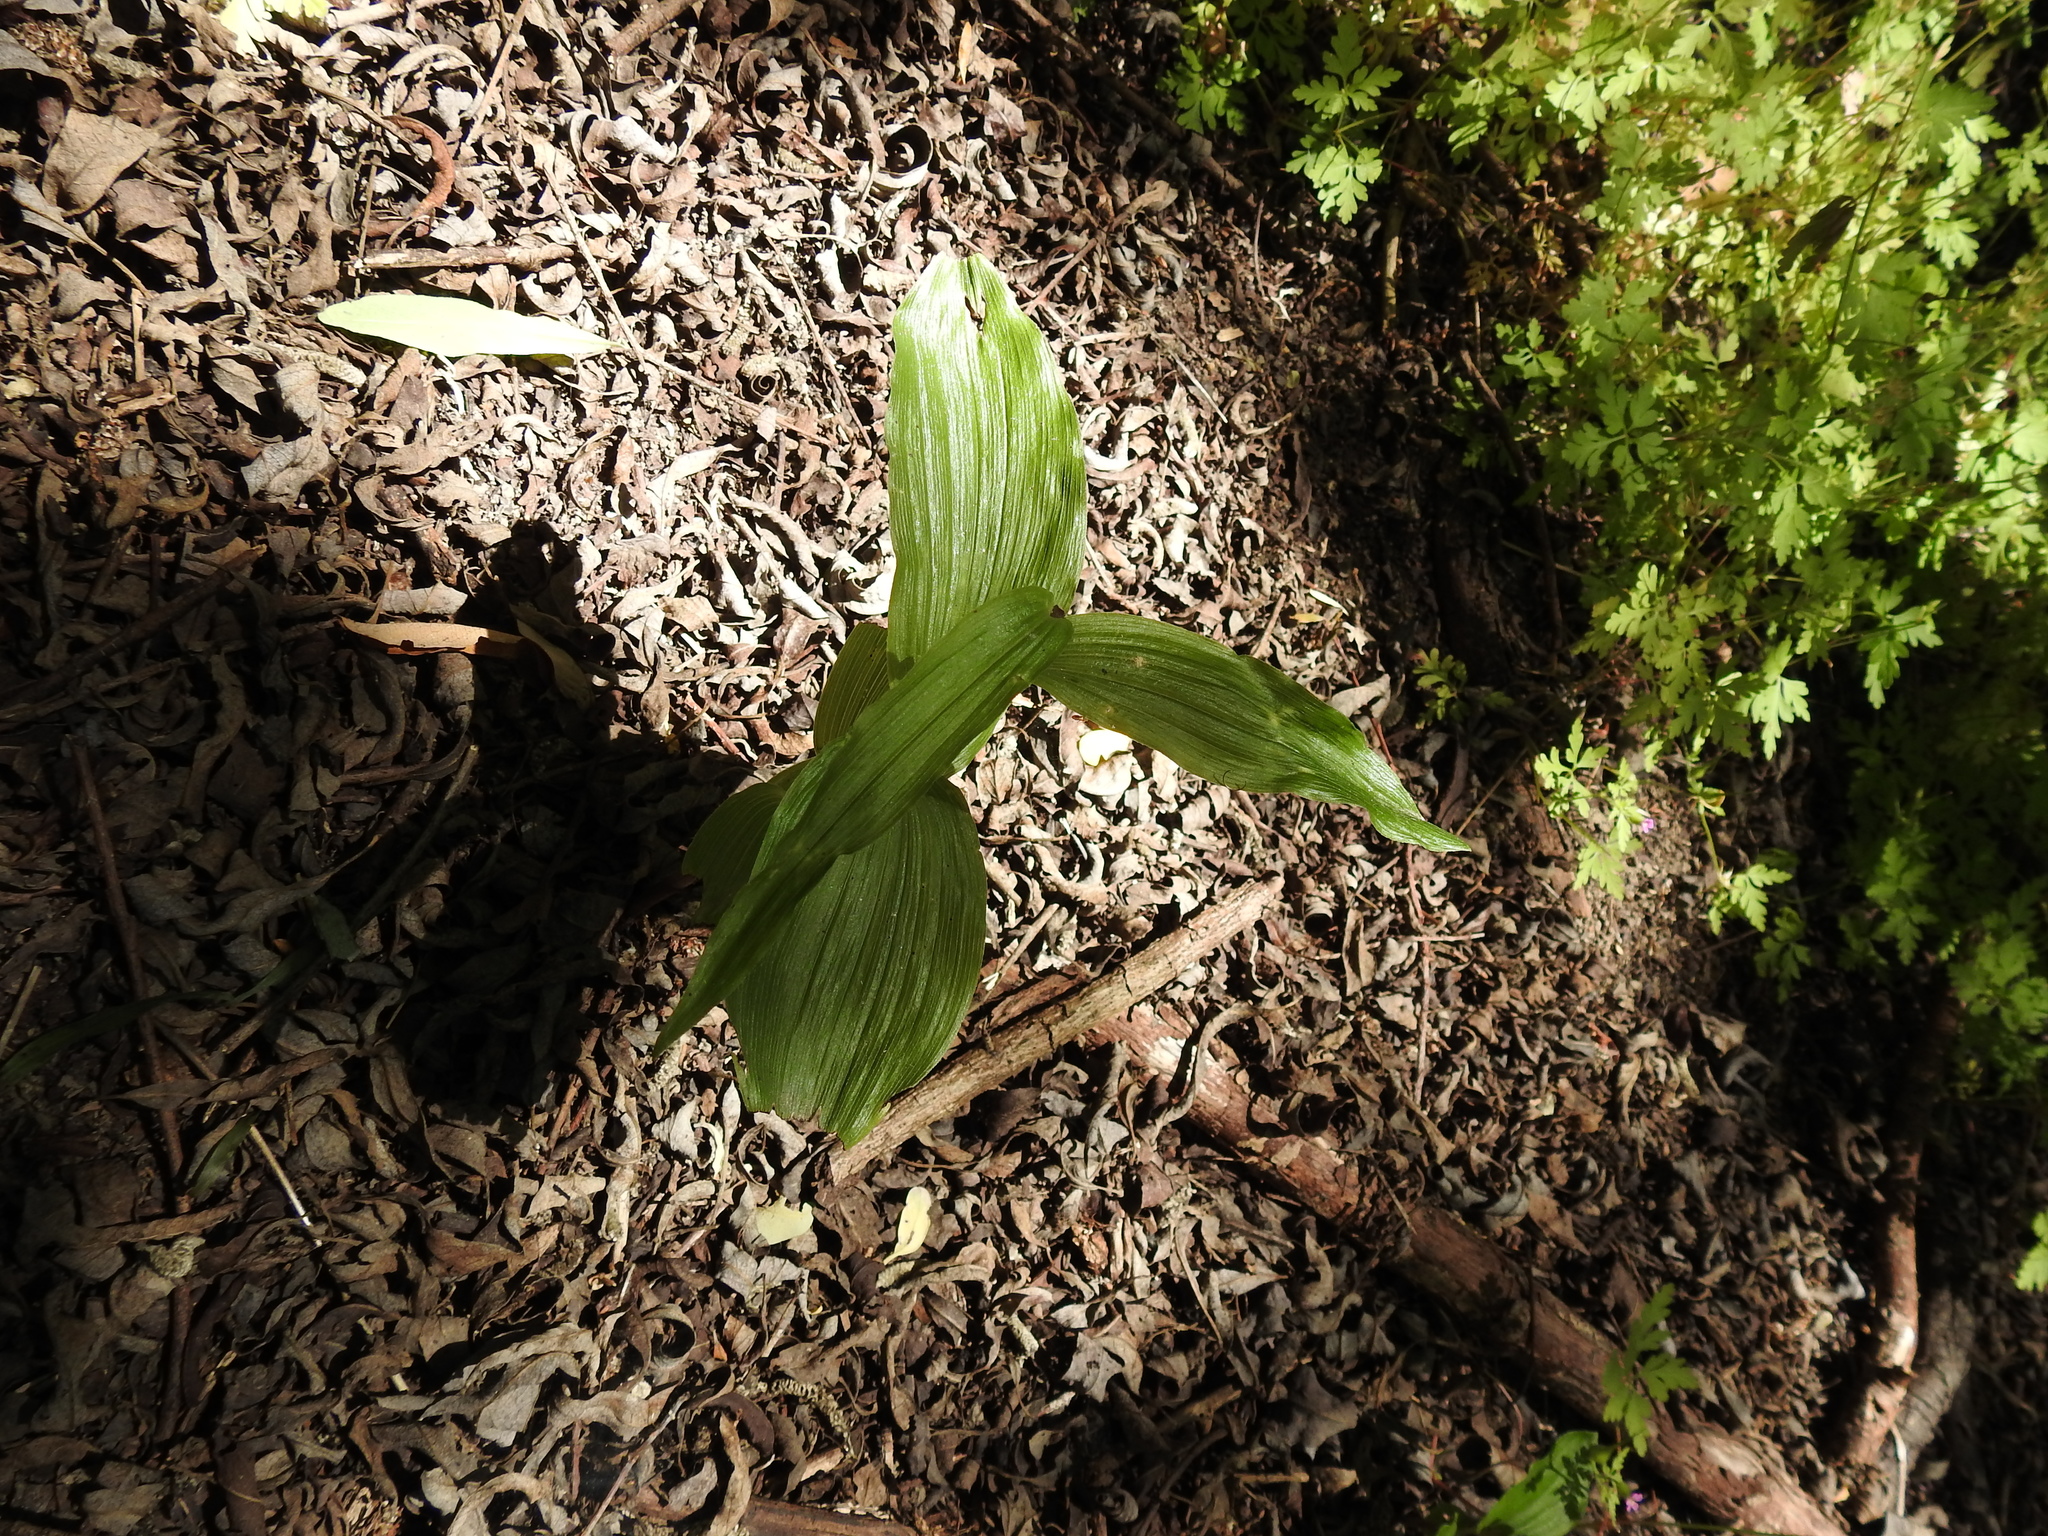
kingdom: Plantae
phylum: Tracheophyta
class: Liliopsida
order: Asparagales
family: Orchidaceae
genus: Epipactis
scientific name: Epipactis helleborine
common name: Broad-leaved helleborine
